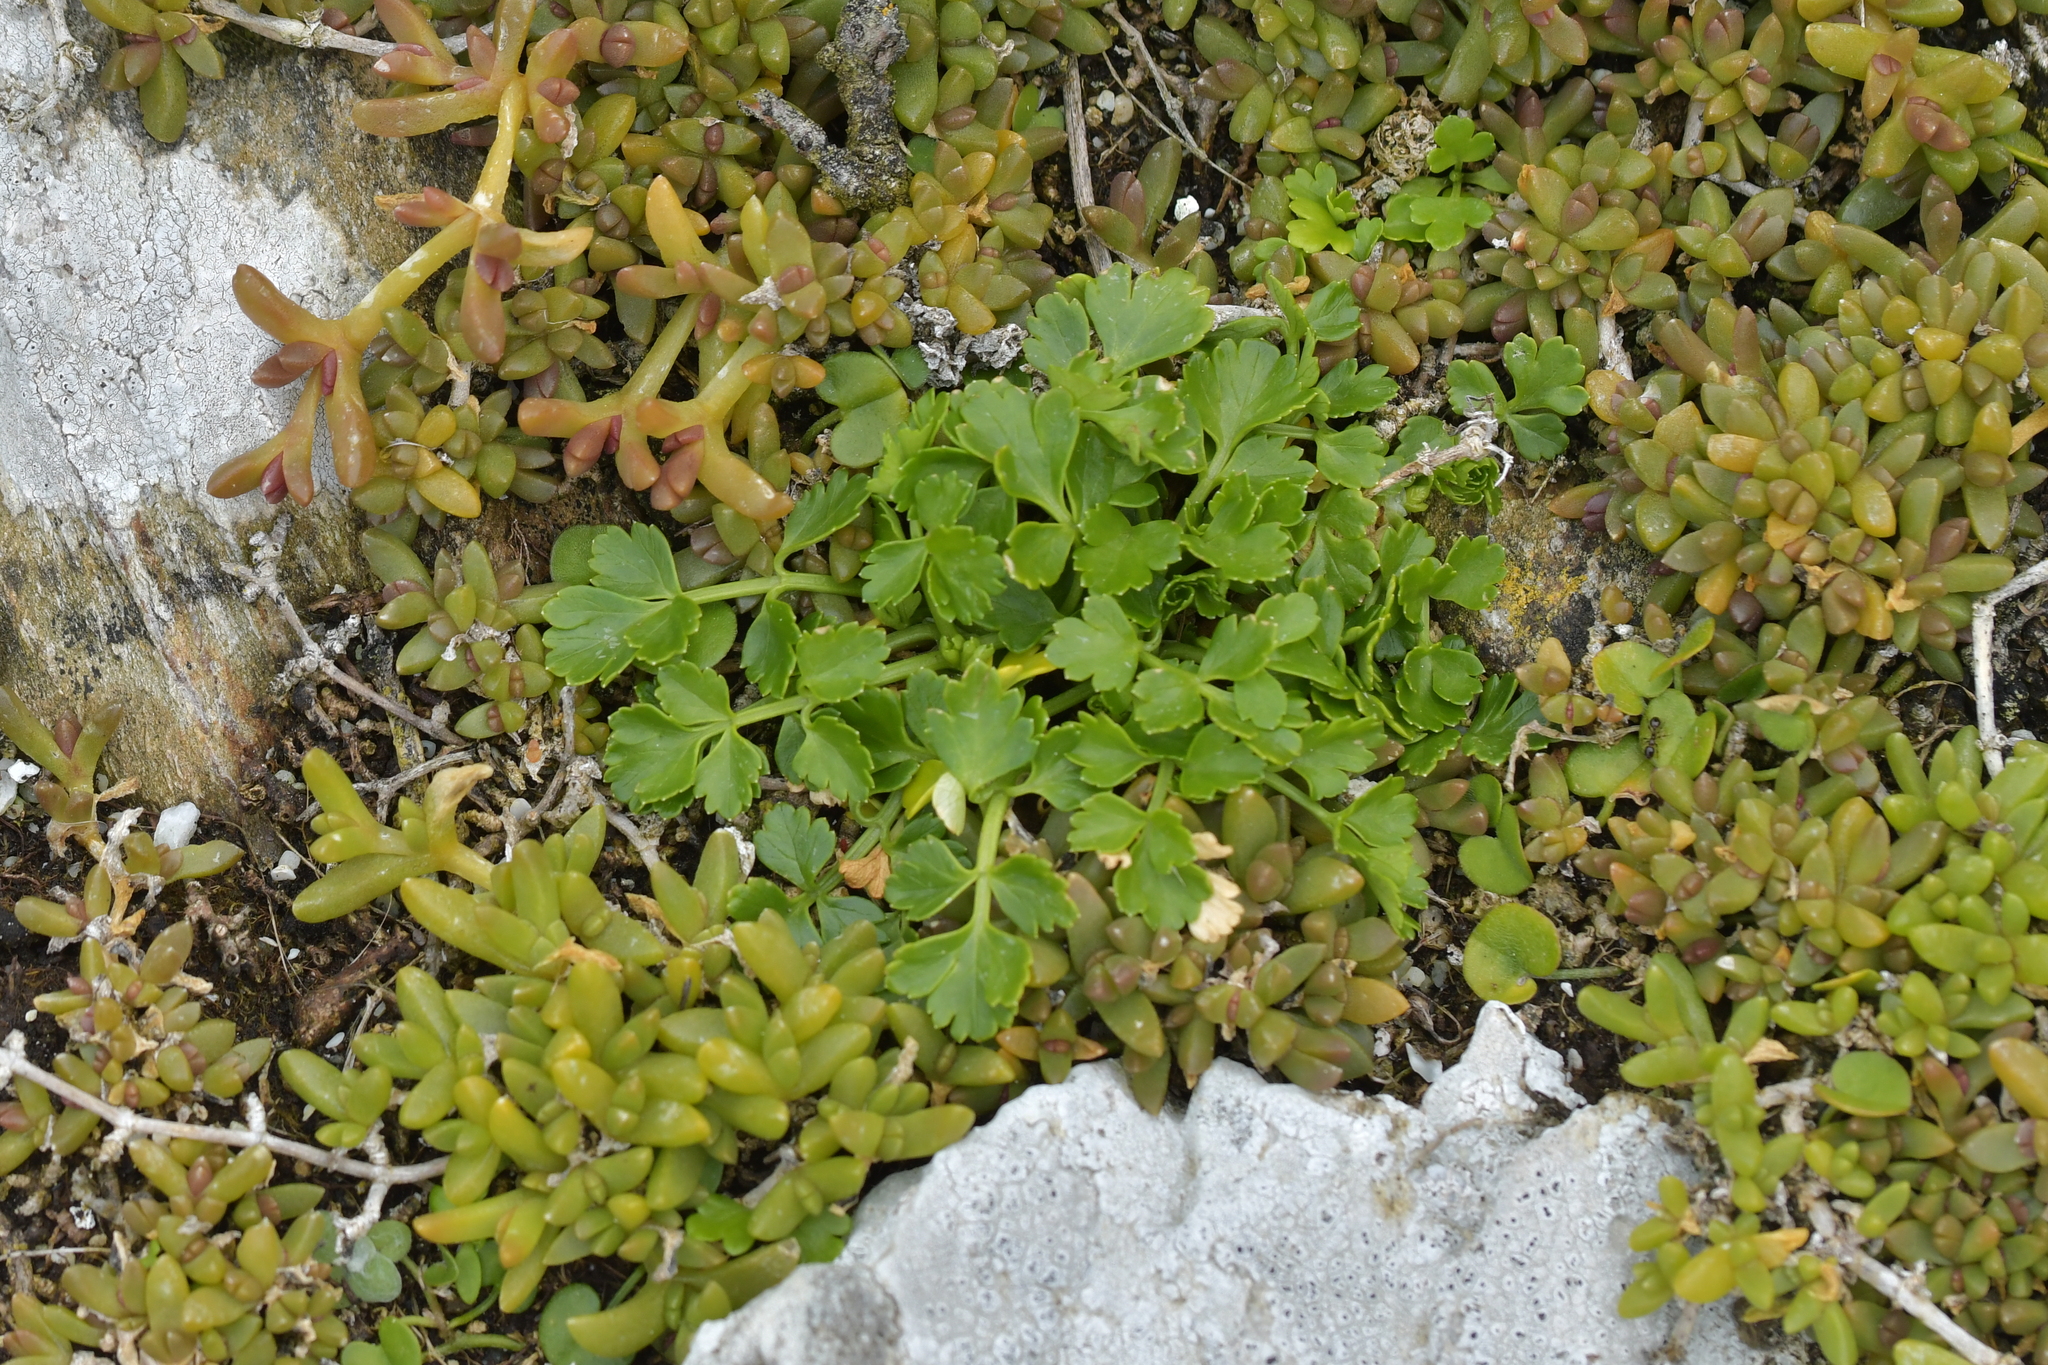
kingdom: Plantae
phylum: Tracheophyta
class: Magnoliopsida
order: Apiales
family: Apiaceae
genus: Apium
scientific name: Apium prostratum
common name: Prostrate marshwort
